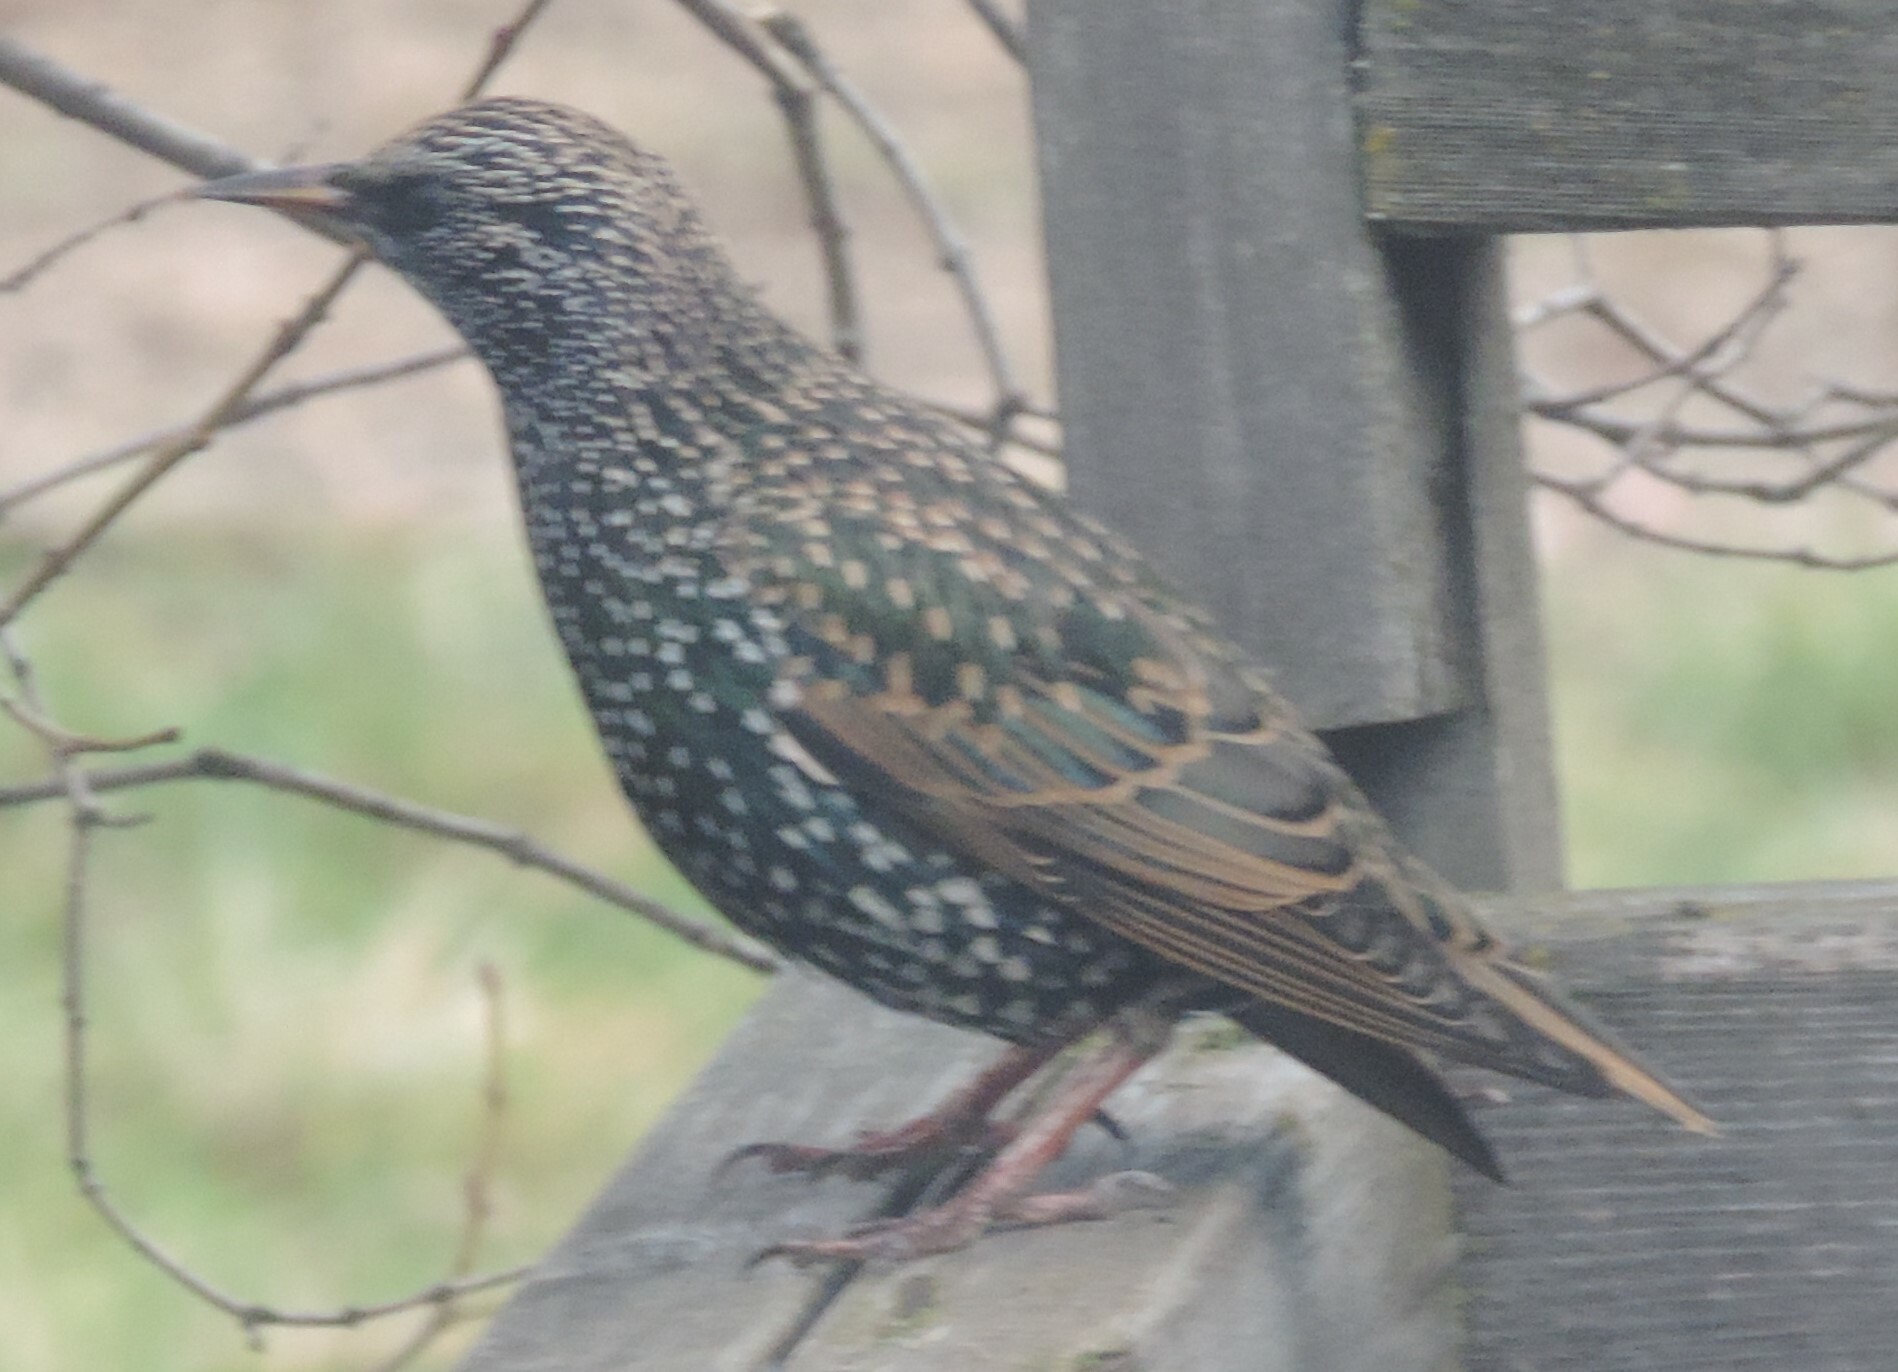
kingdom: Animalia
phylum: Chordata
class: Aves
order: Passeriformes
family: Sturnidae
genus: Sturnus
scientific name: Sturnus vulgaris
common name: Common starling
